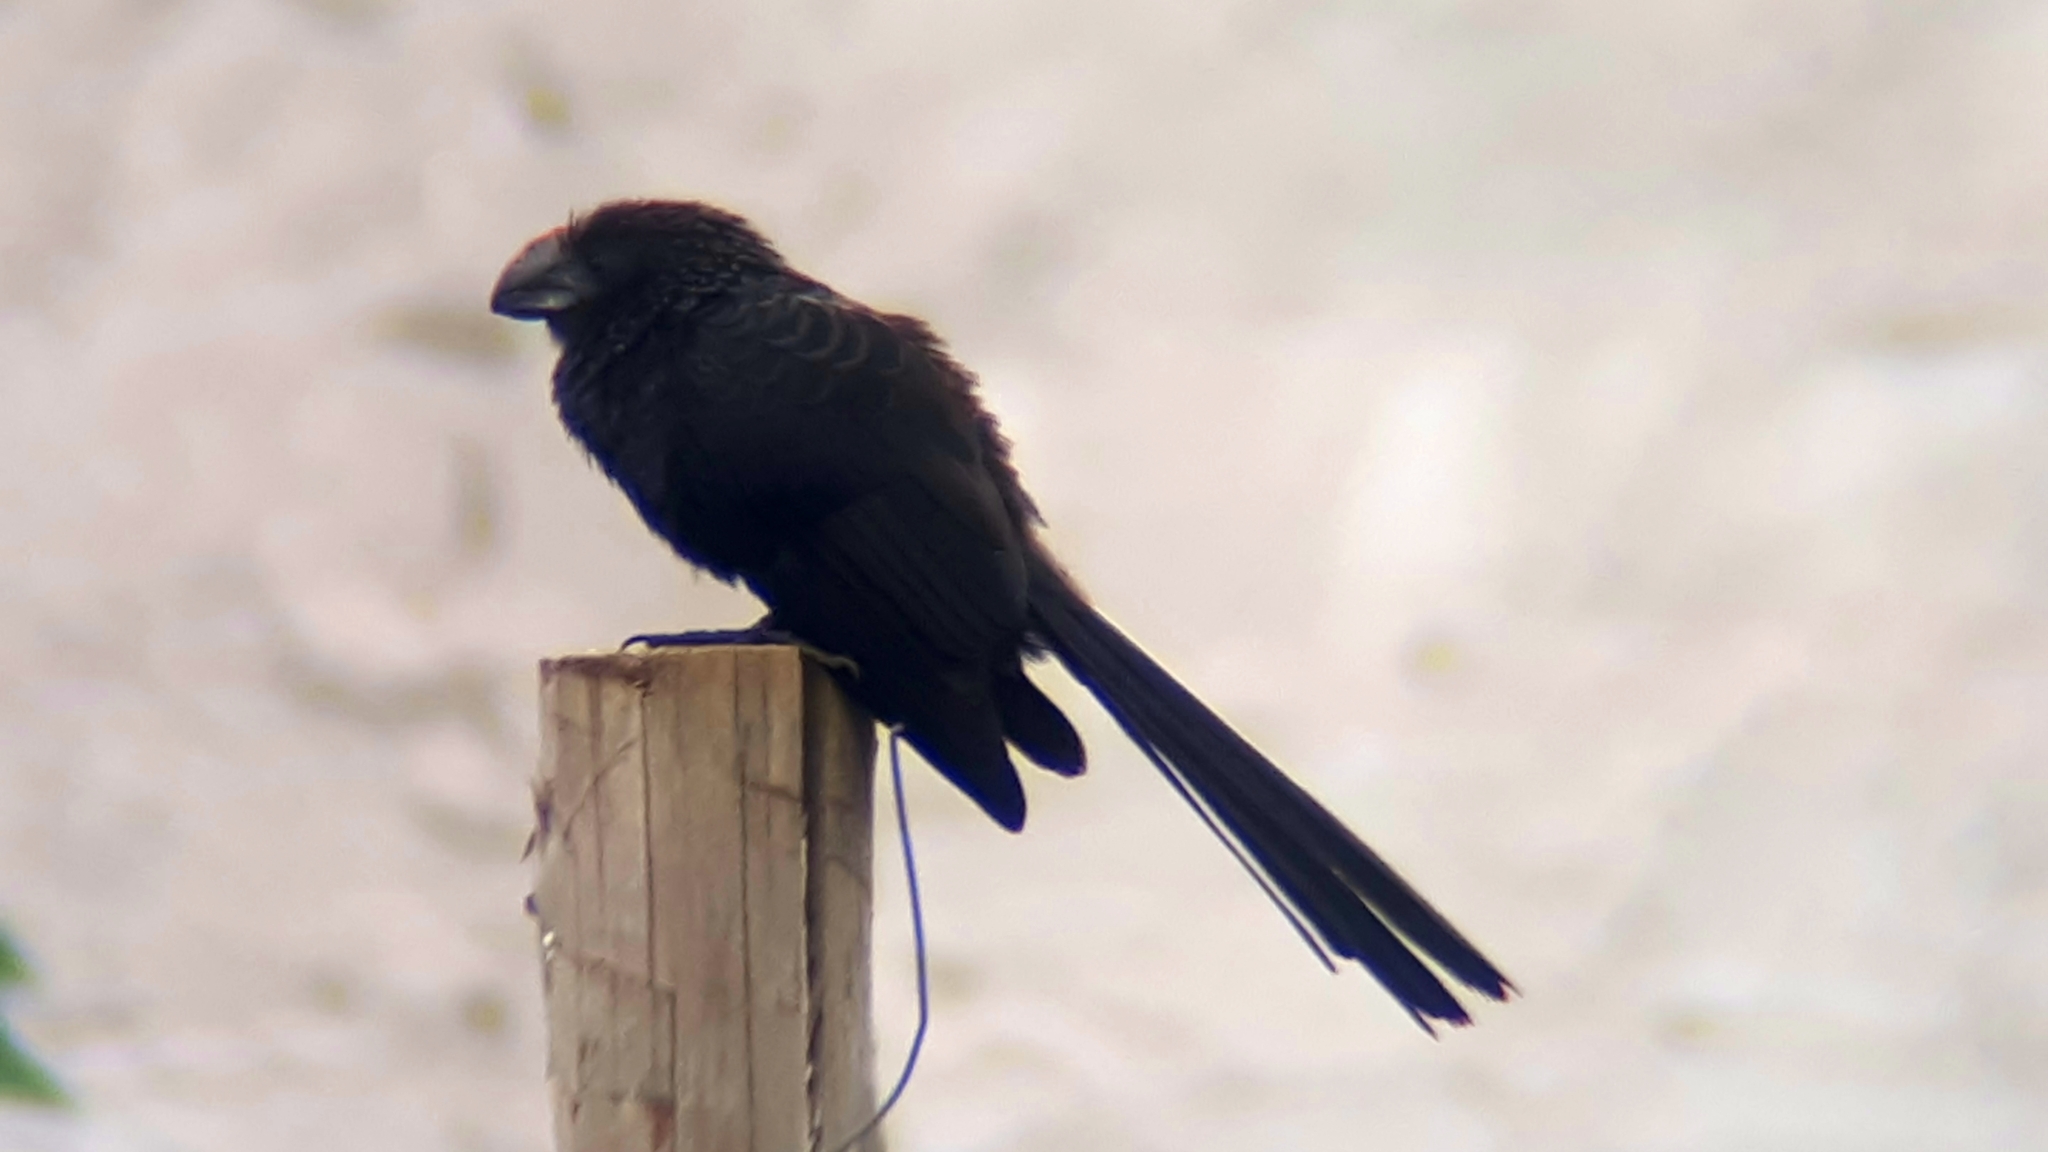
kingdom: Animalia
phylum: Chordata
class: Aves
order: Cuculiformes
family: Cuculidae
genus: Crotophaga
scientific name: Crotophaga ani
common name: Smooth-billed ani
